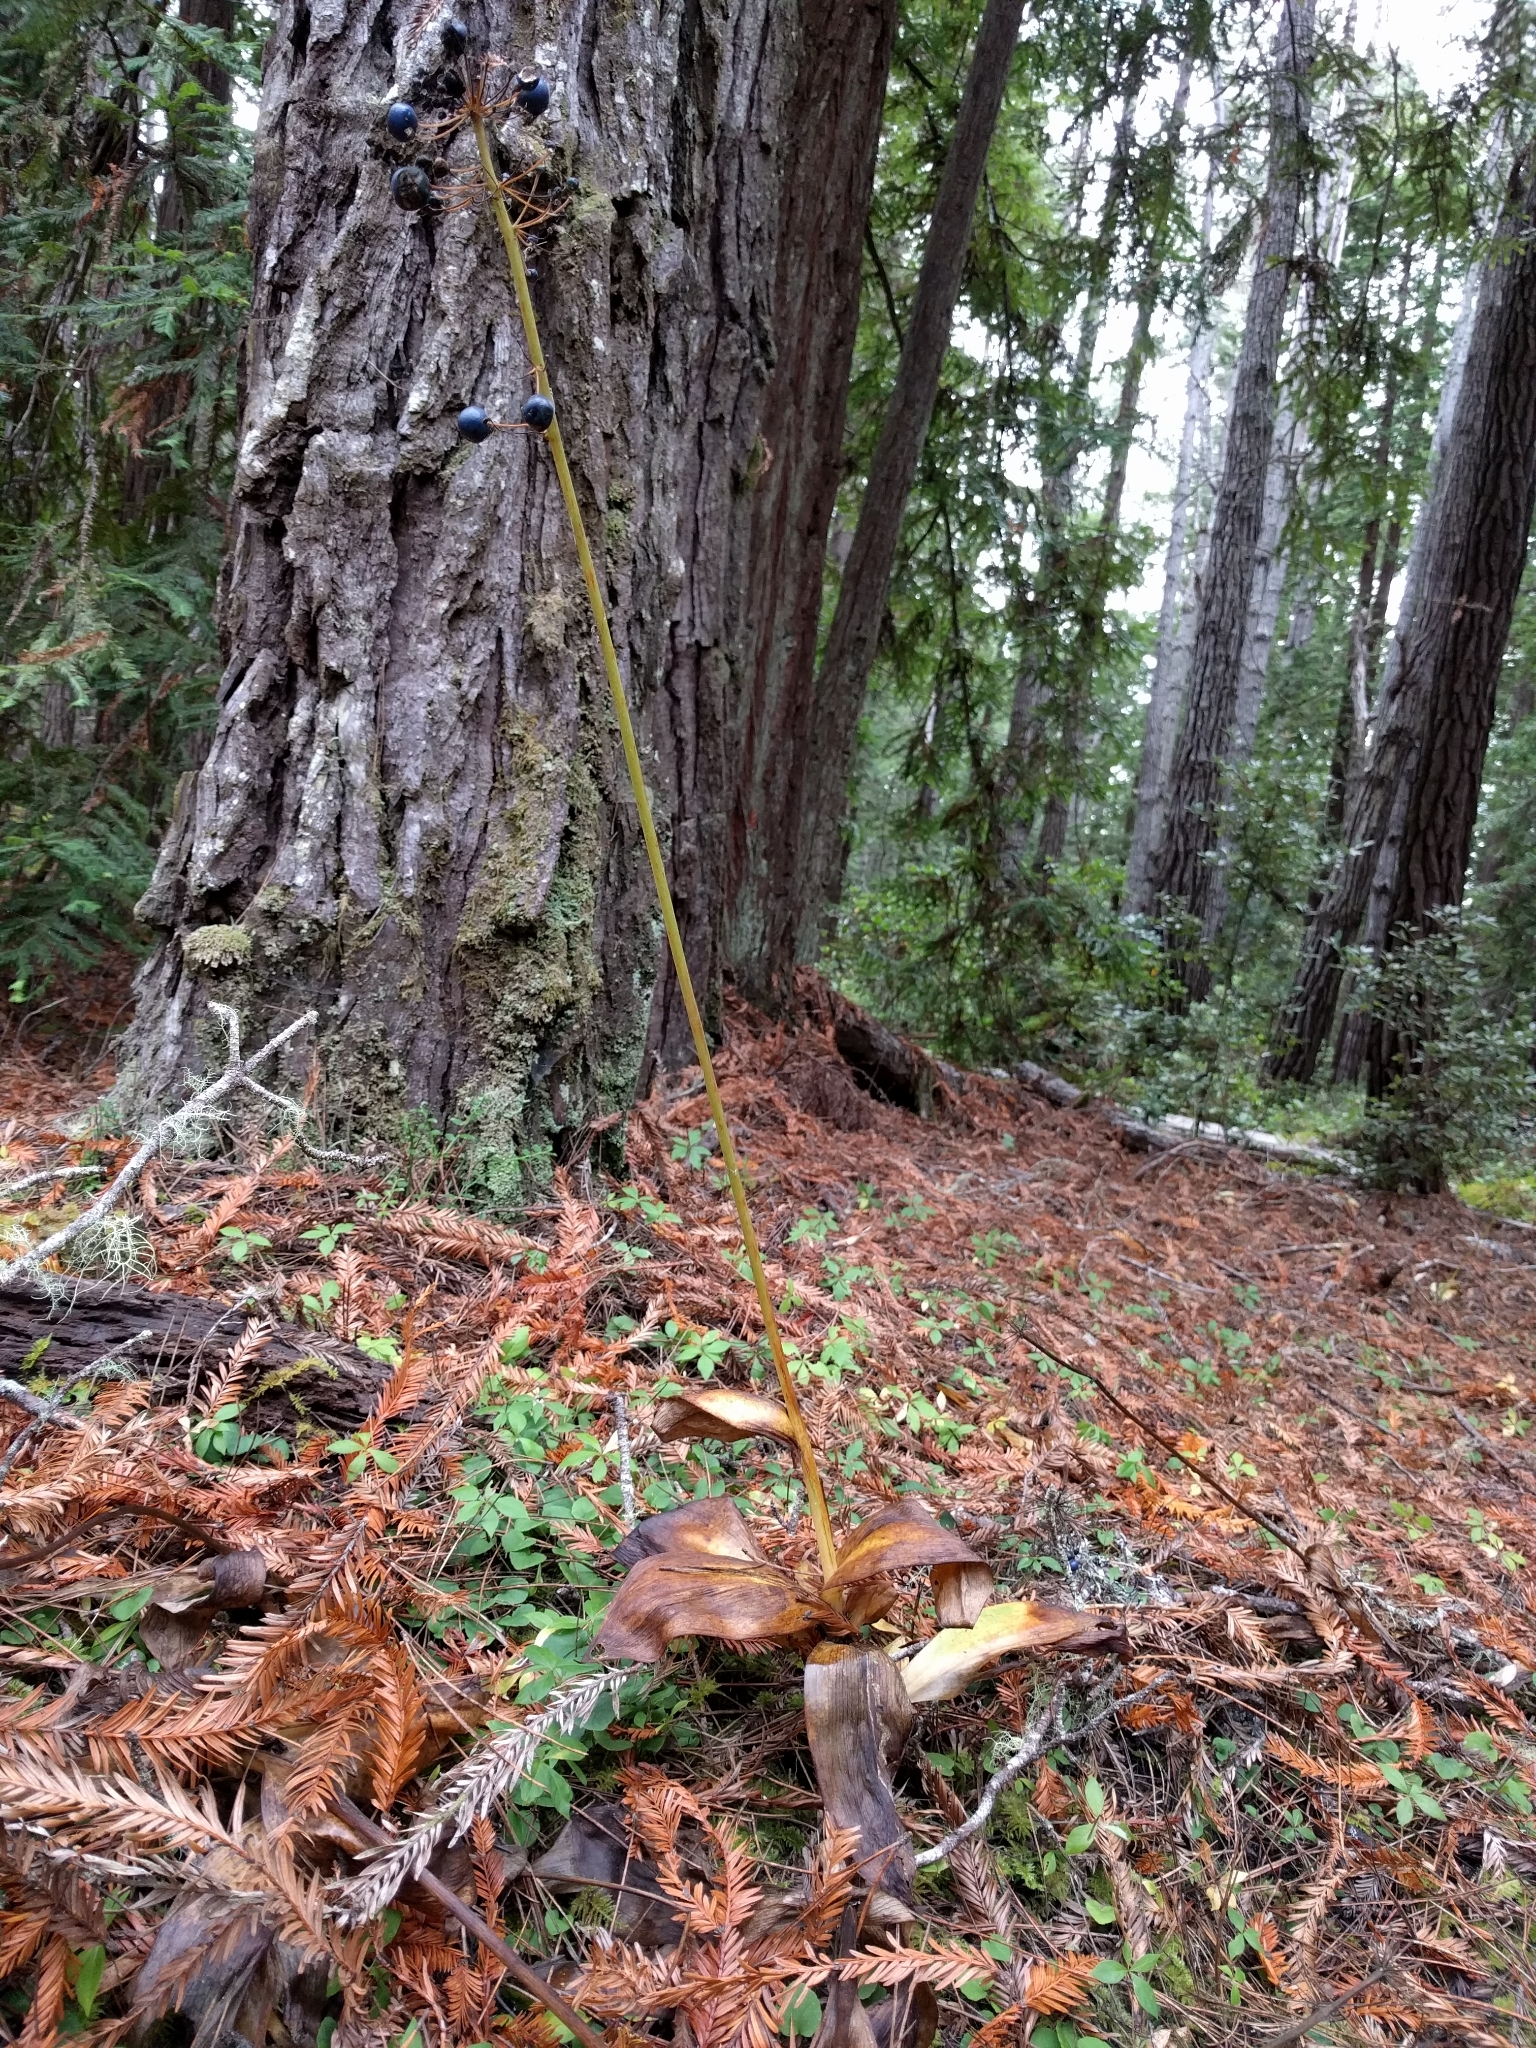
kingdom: Plantae
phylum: Tracheophyta
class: Liliopsida
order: Liliales
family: Liliaceae
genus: Clintonia
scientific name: Clintonia andrewsiana
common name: Red clintonia
